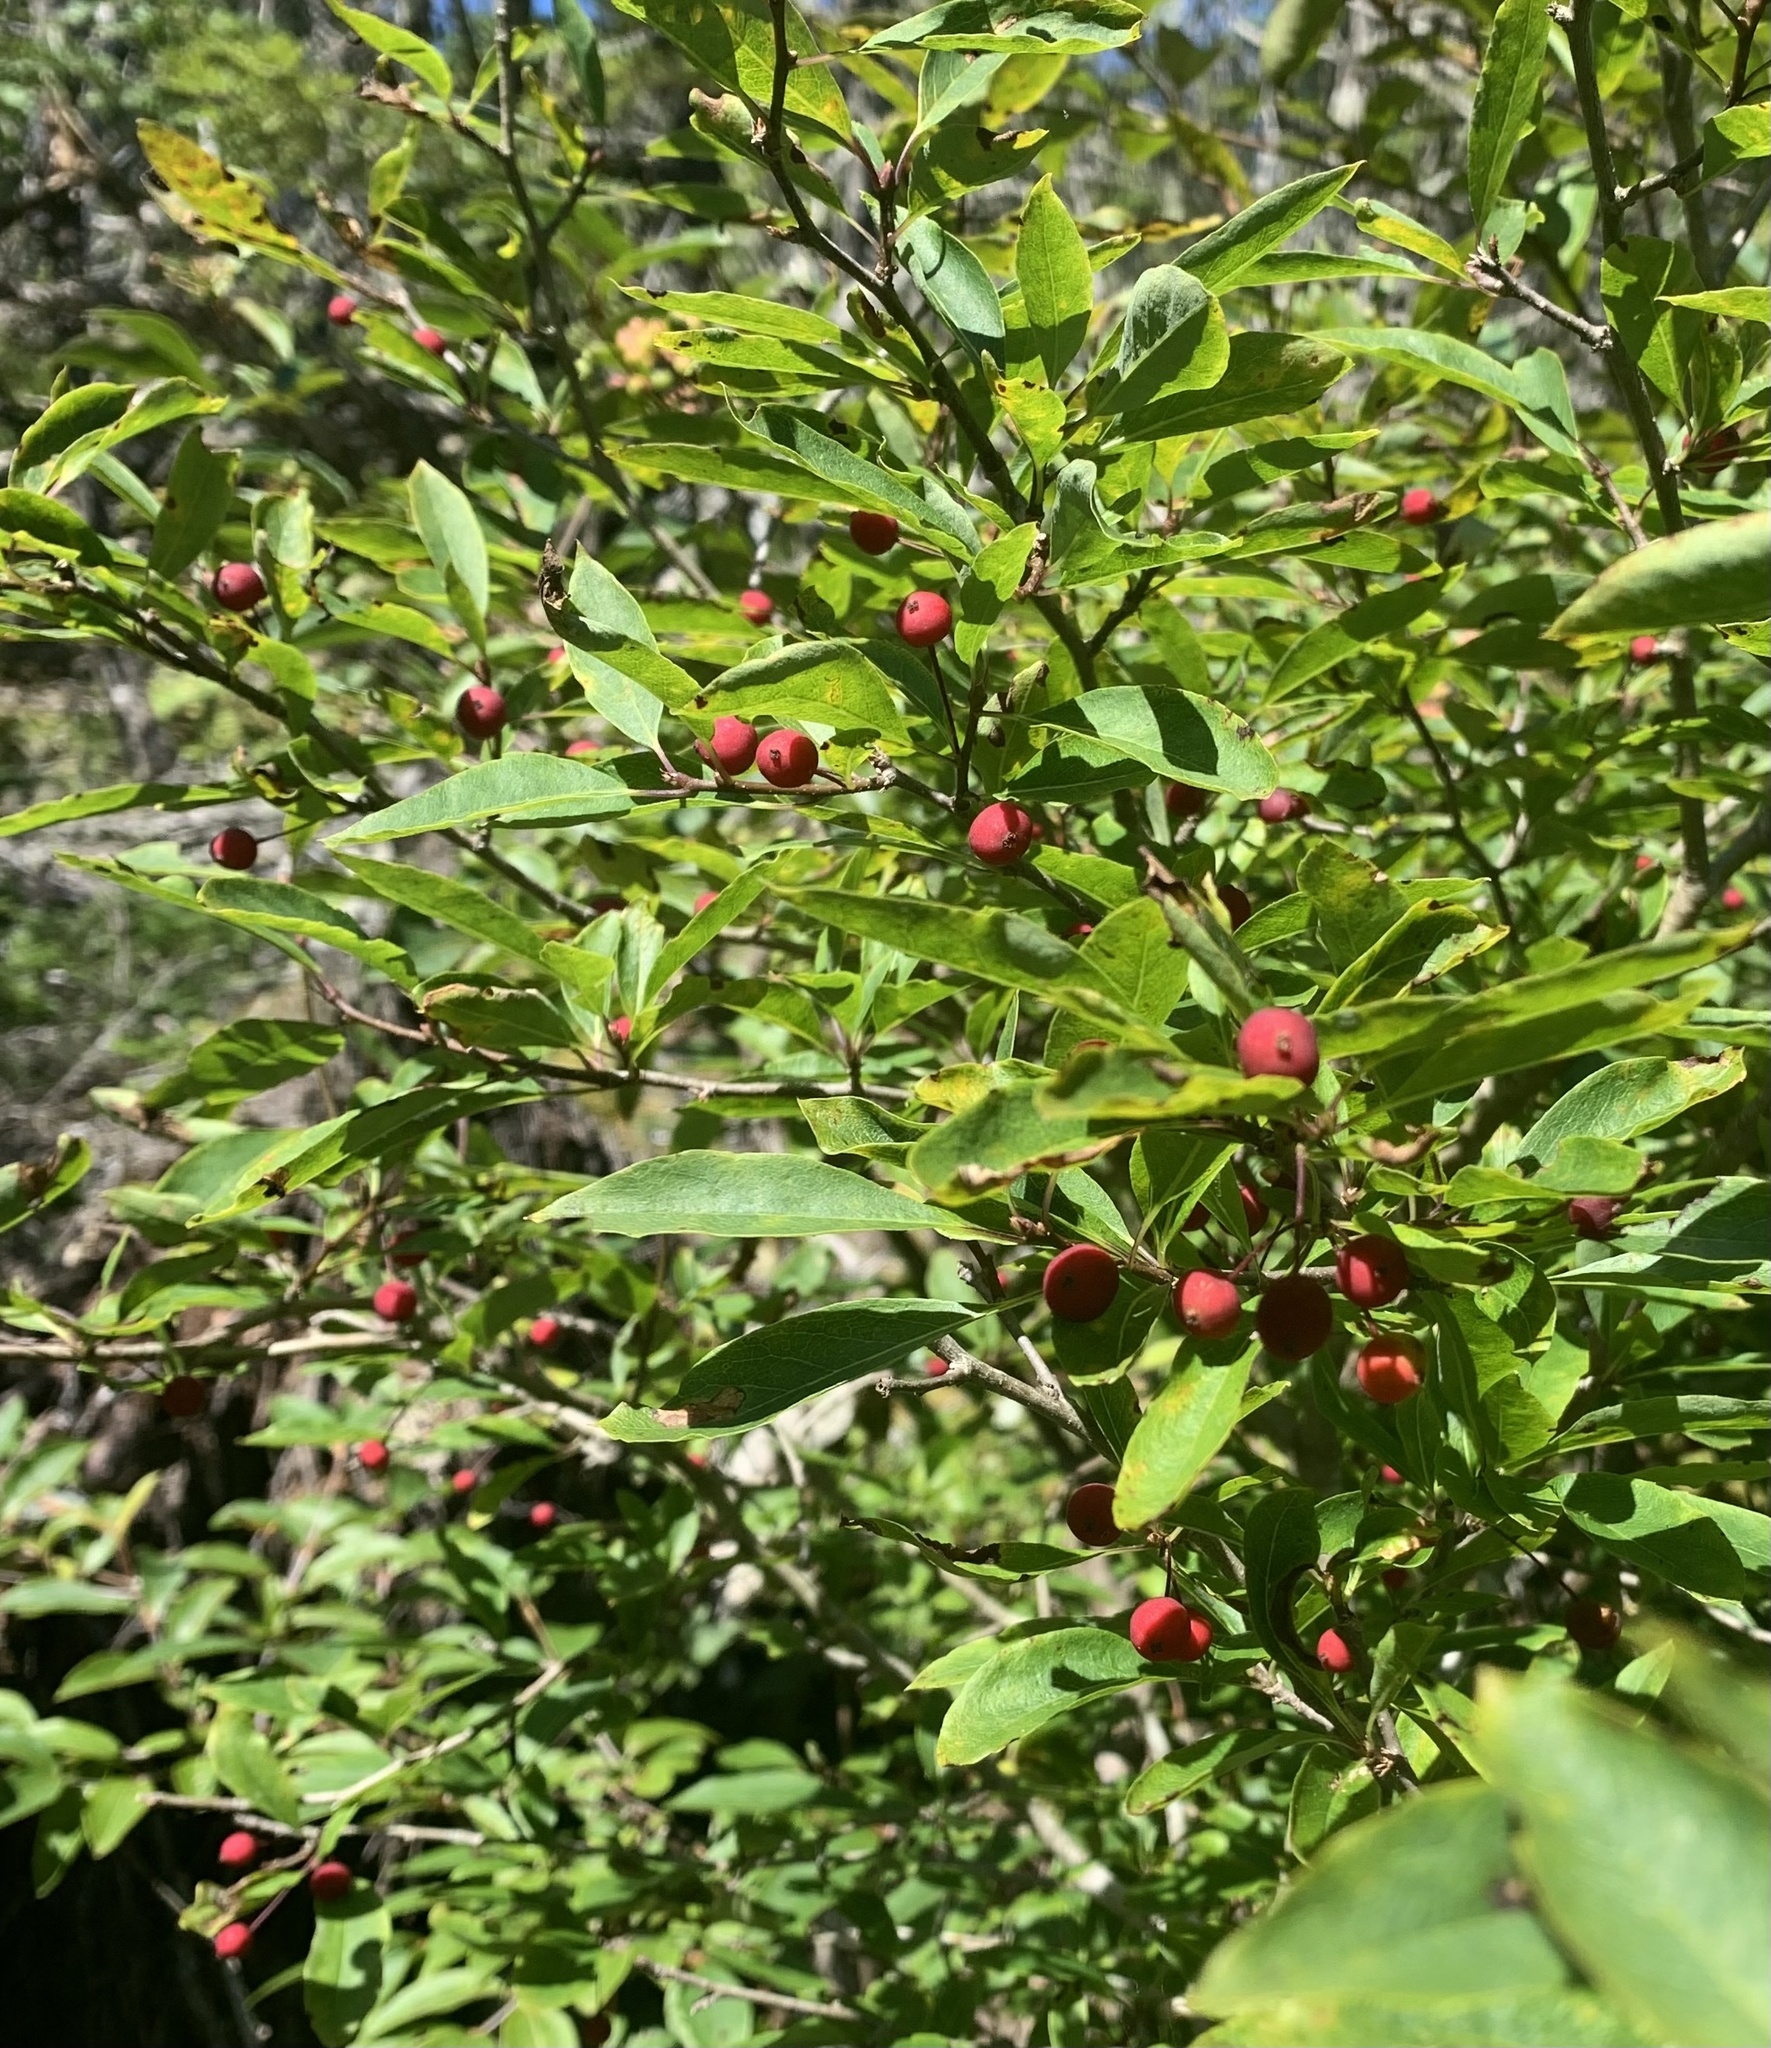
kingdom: Plantae
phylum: Tracheophyta
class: Magnoliopsida
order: Aquifoliales
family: Aquifoliaceae
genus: Ilex
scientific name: Ilex mucronata
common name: Catberry
